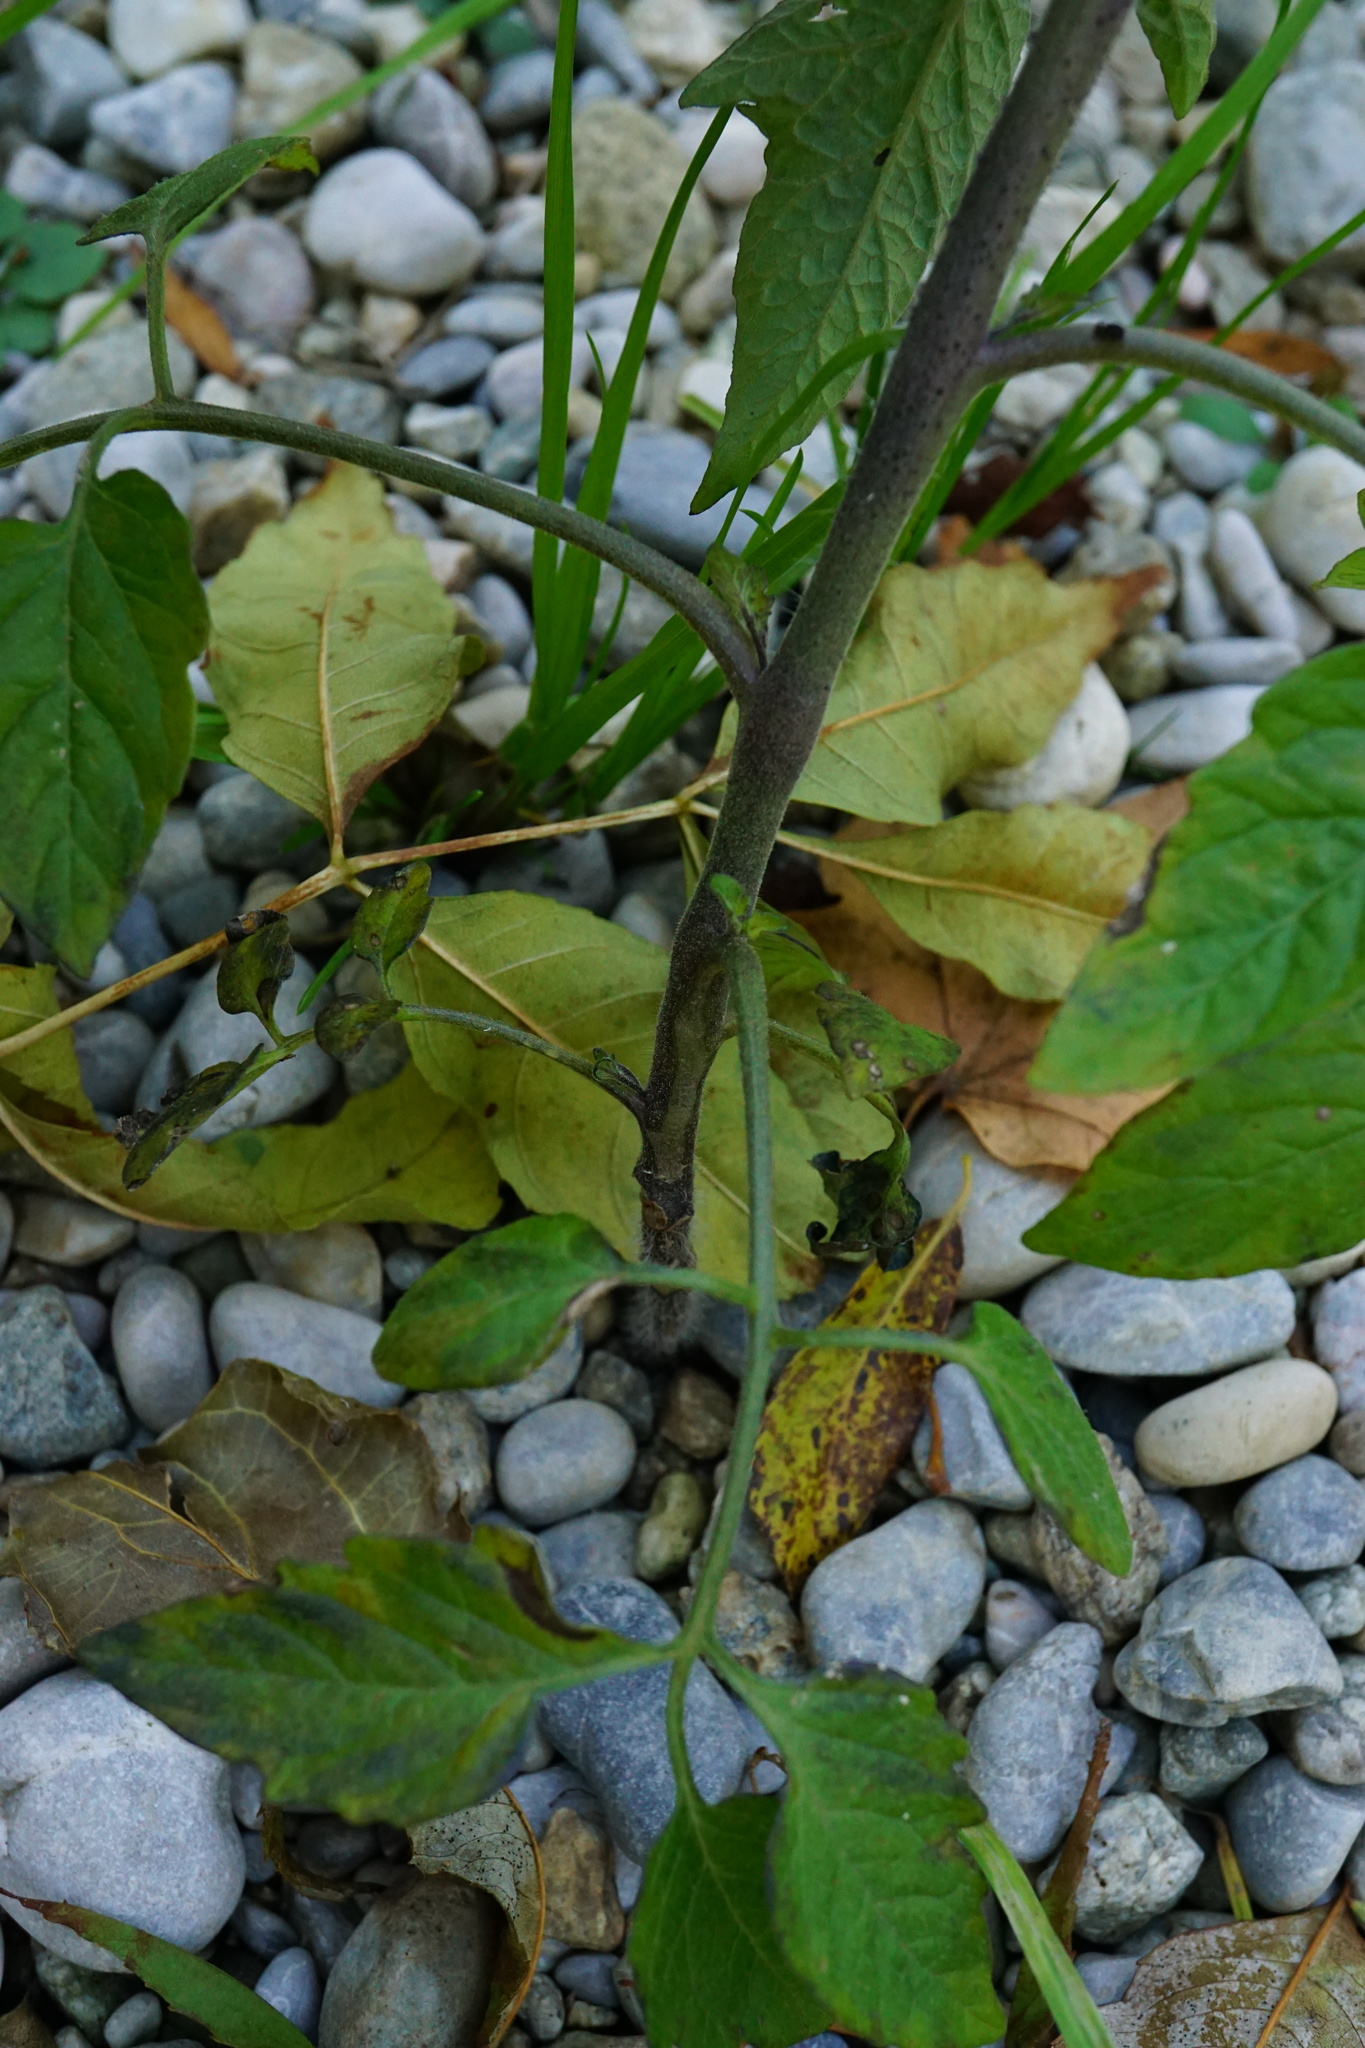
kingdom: Plantae
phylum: Tracheophyta
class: Magnoliopsida
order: Solanales
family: Solanaceae
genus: Solanum
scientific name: Solanum lycopersicum
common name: Garden tomato
